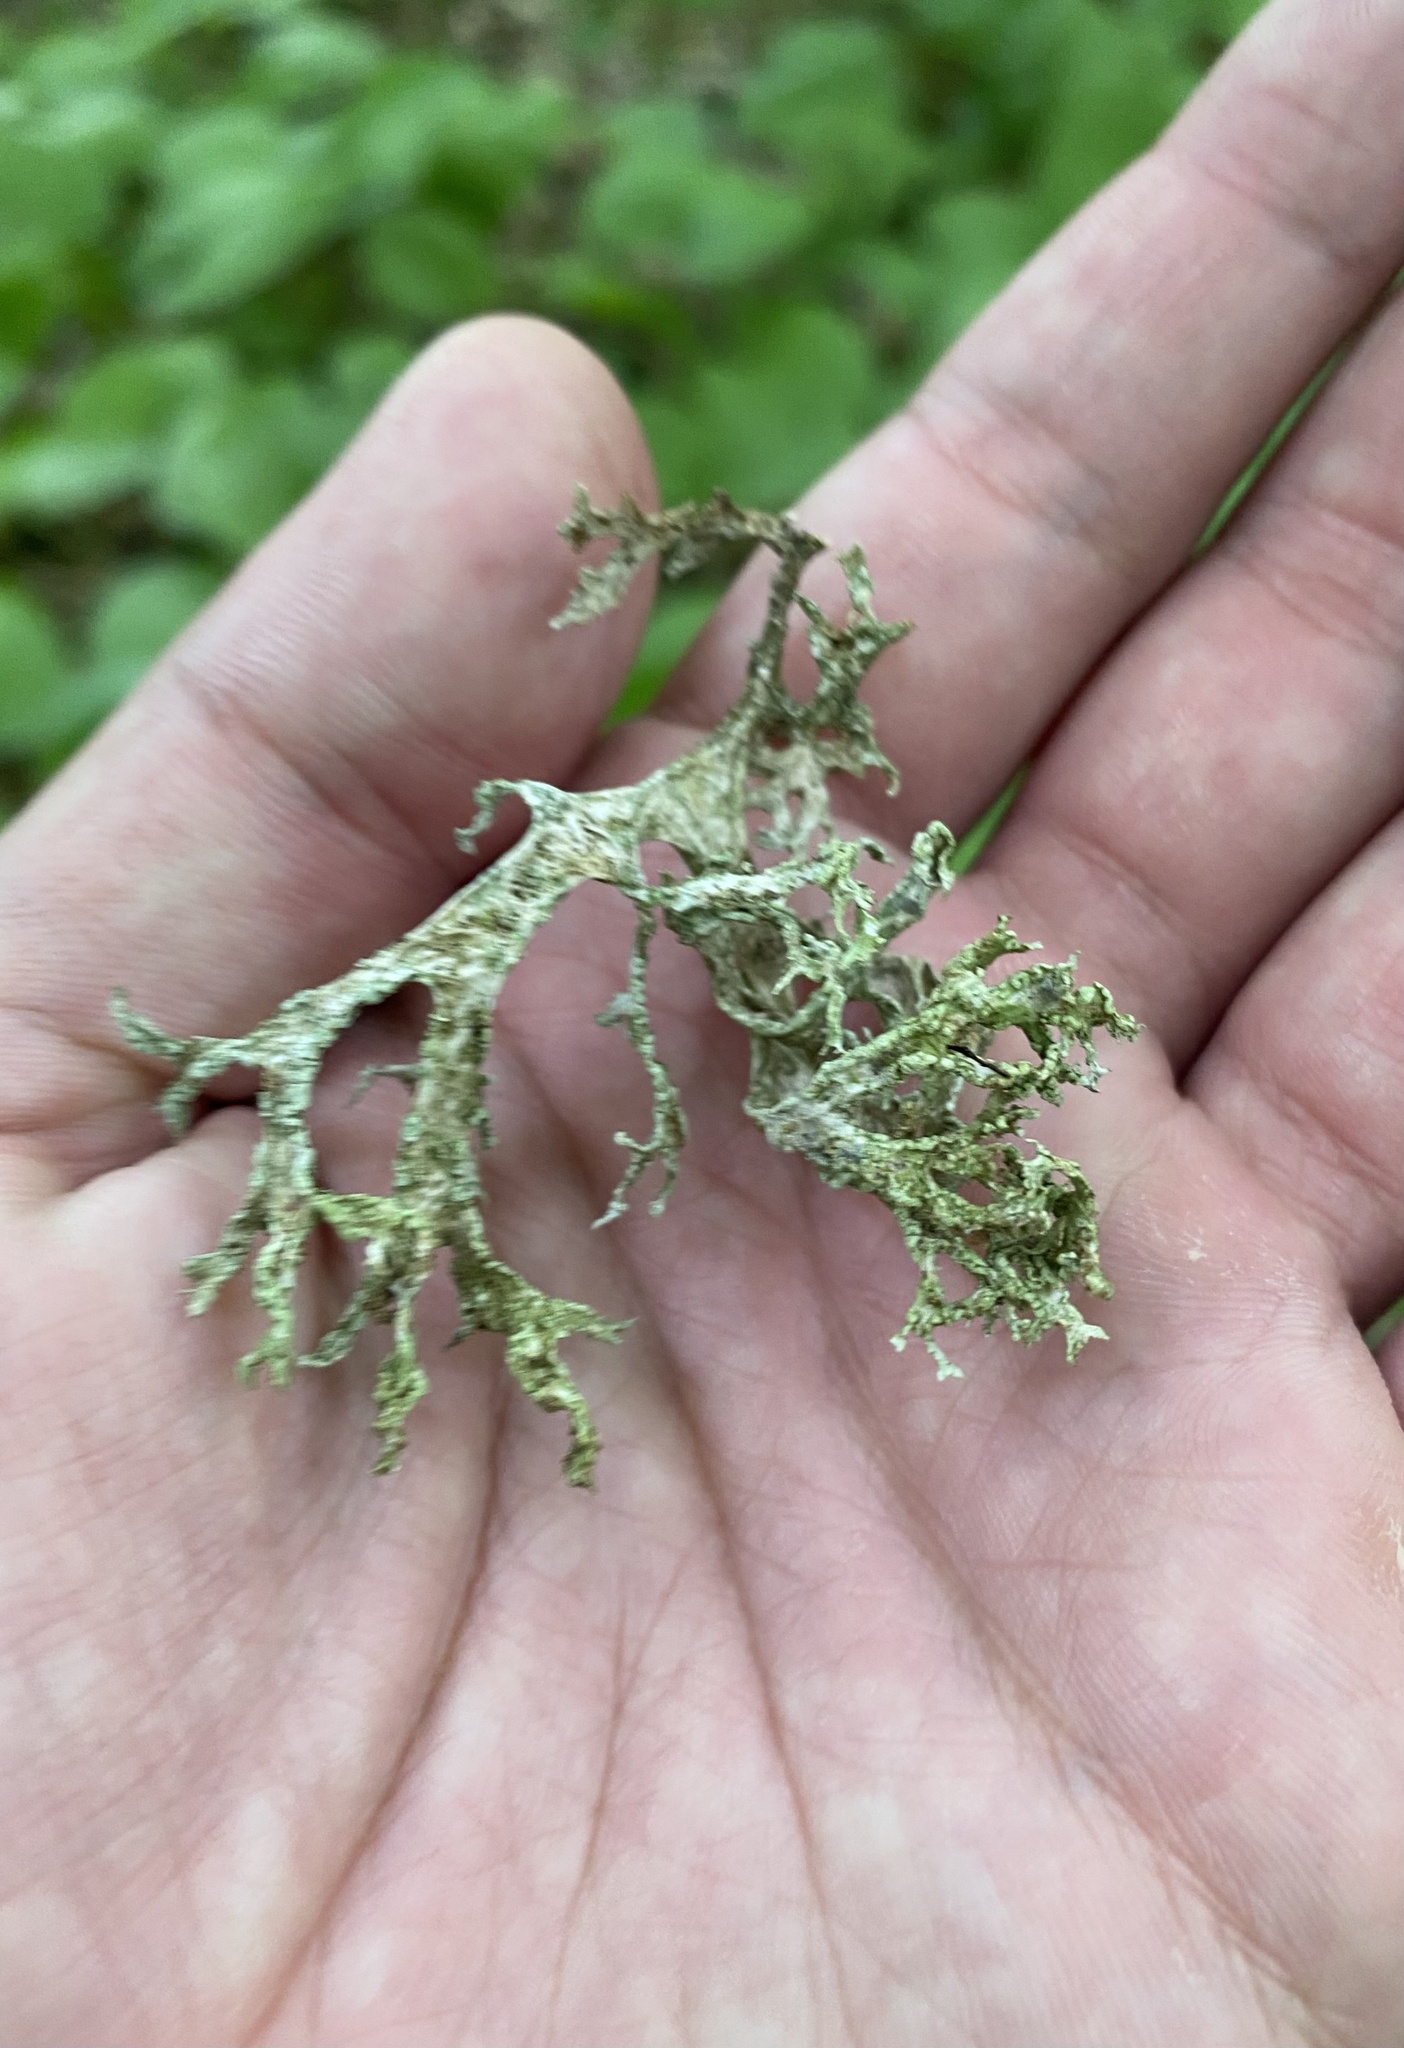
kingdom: Fungi
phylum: Ascomycota
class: Lecanoromycetes
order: Lecanorales
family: Parmeliaceae
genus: Evernia
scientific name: Evernia prunastri
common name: Oak moss
